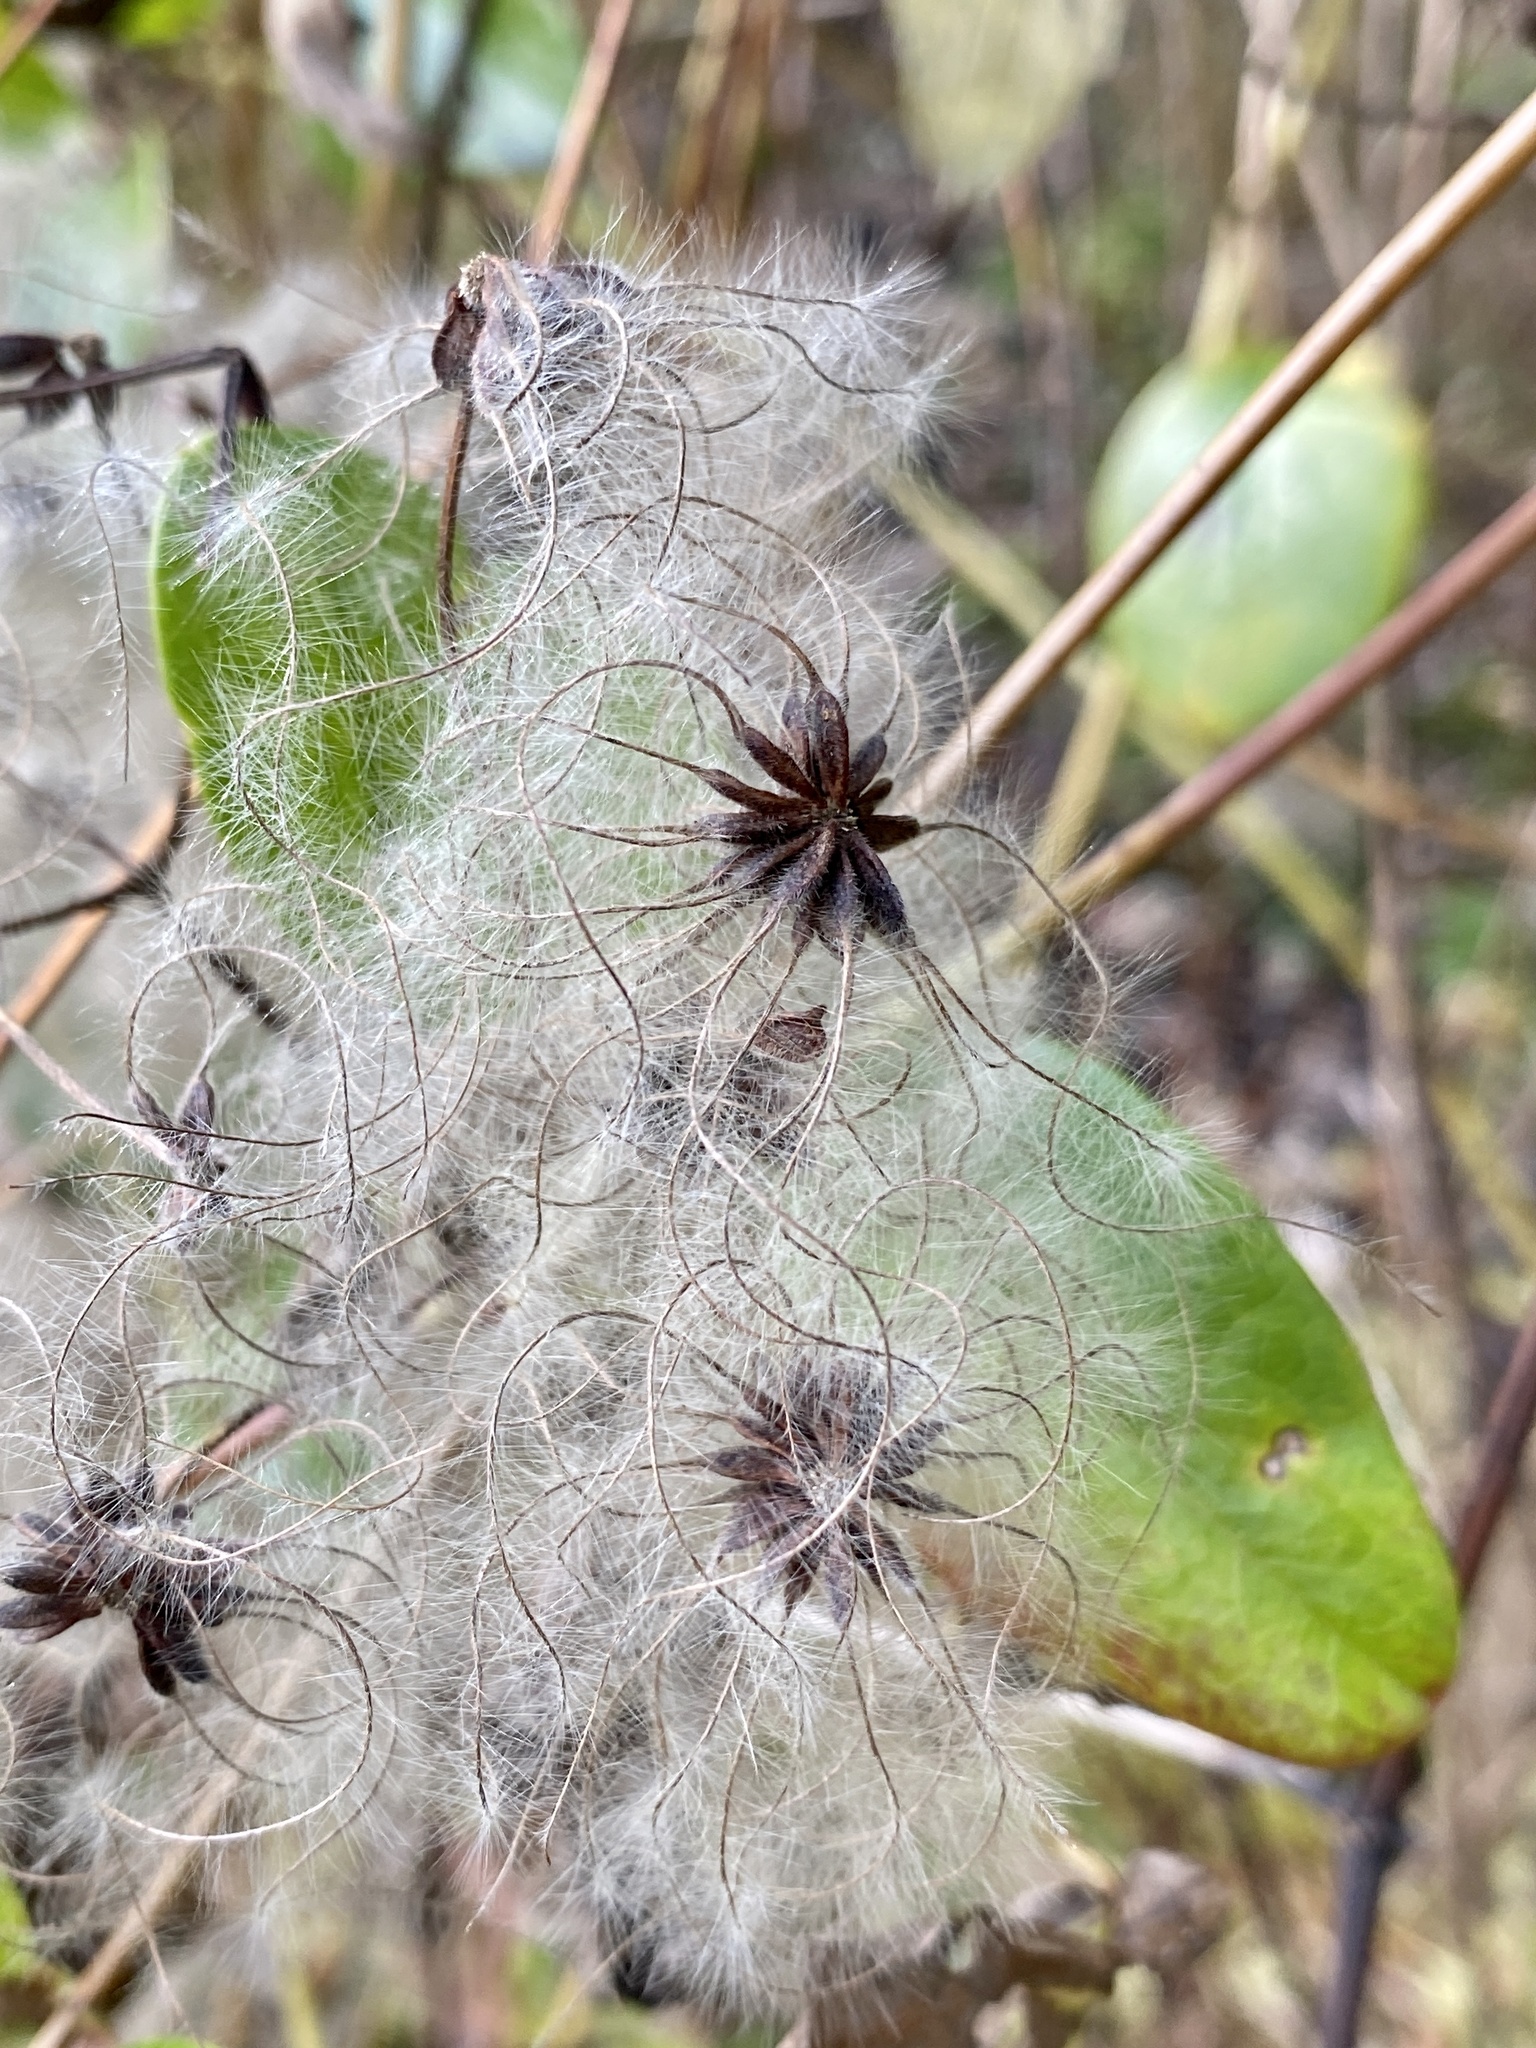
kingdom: Plantae
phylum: Tracheophyta
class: Magnoliopsida
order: Ranunculales
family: Ranunculaceae
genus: Clematis
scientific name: Clematis virginiana
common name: Virgin's-bower
